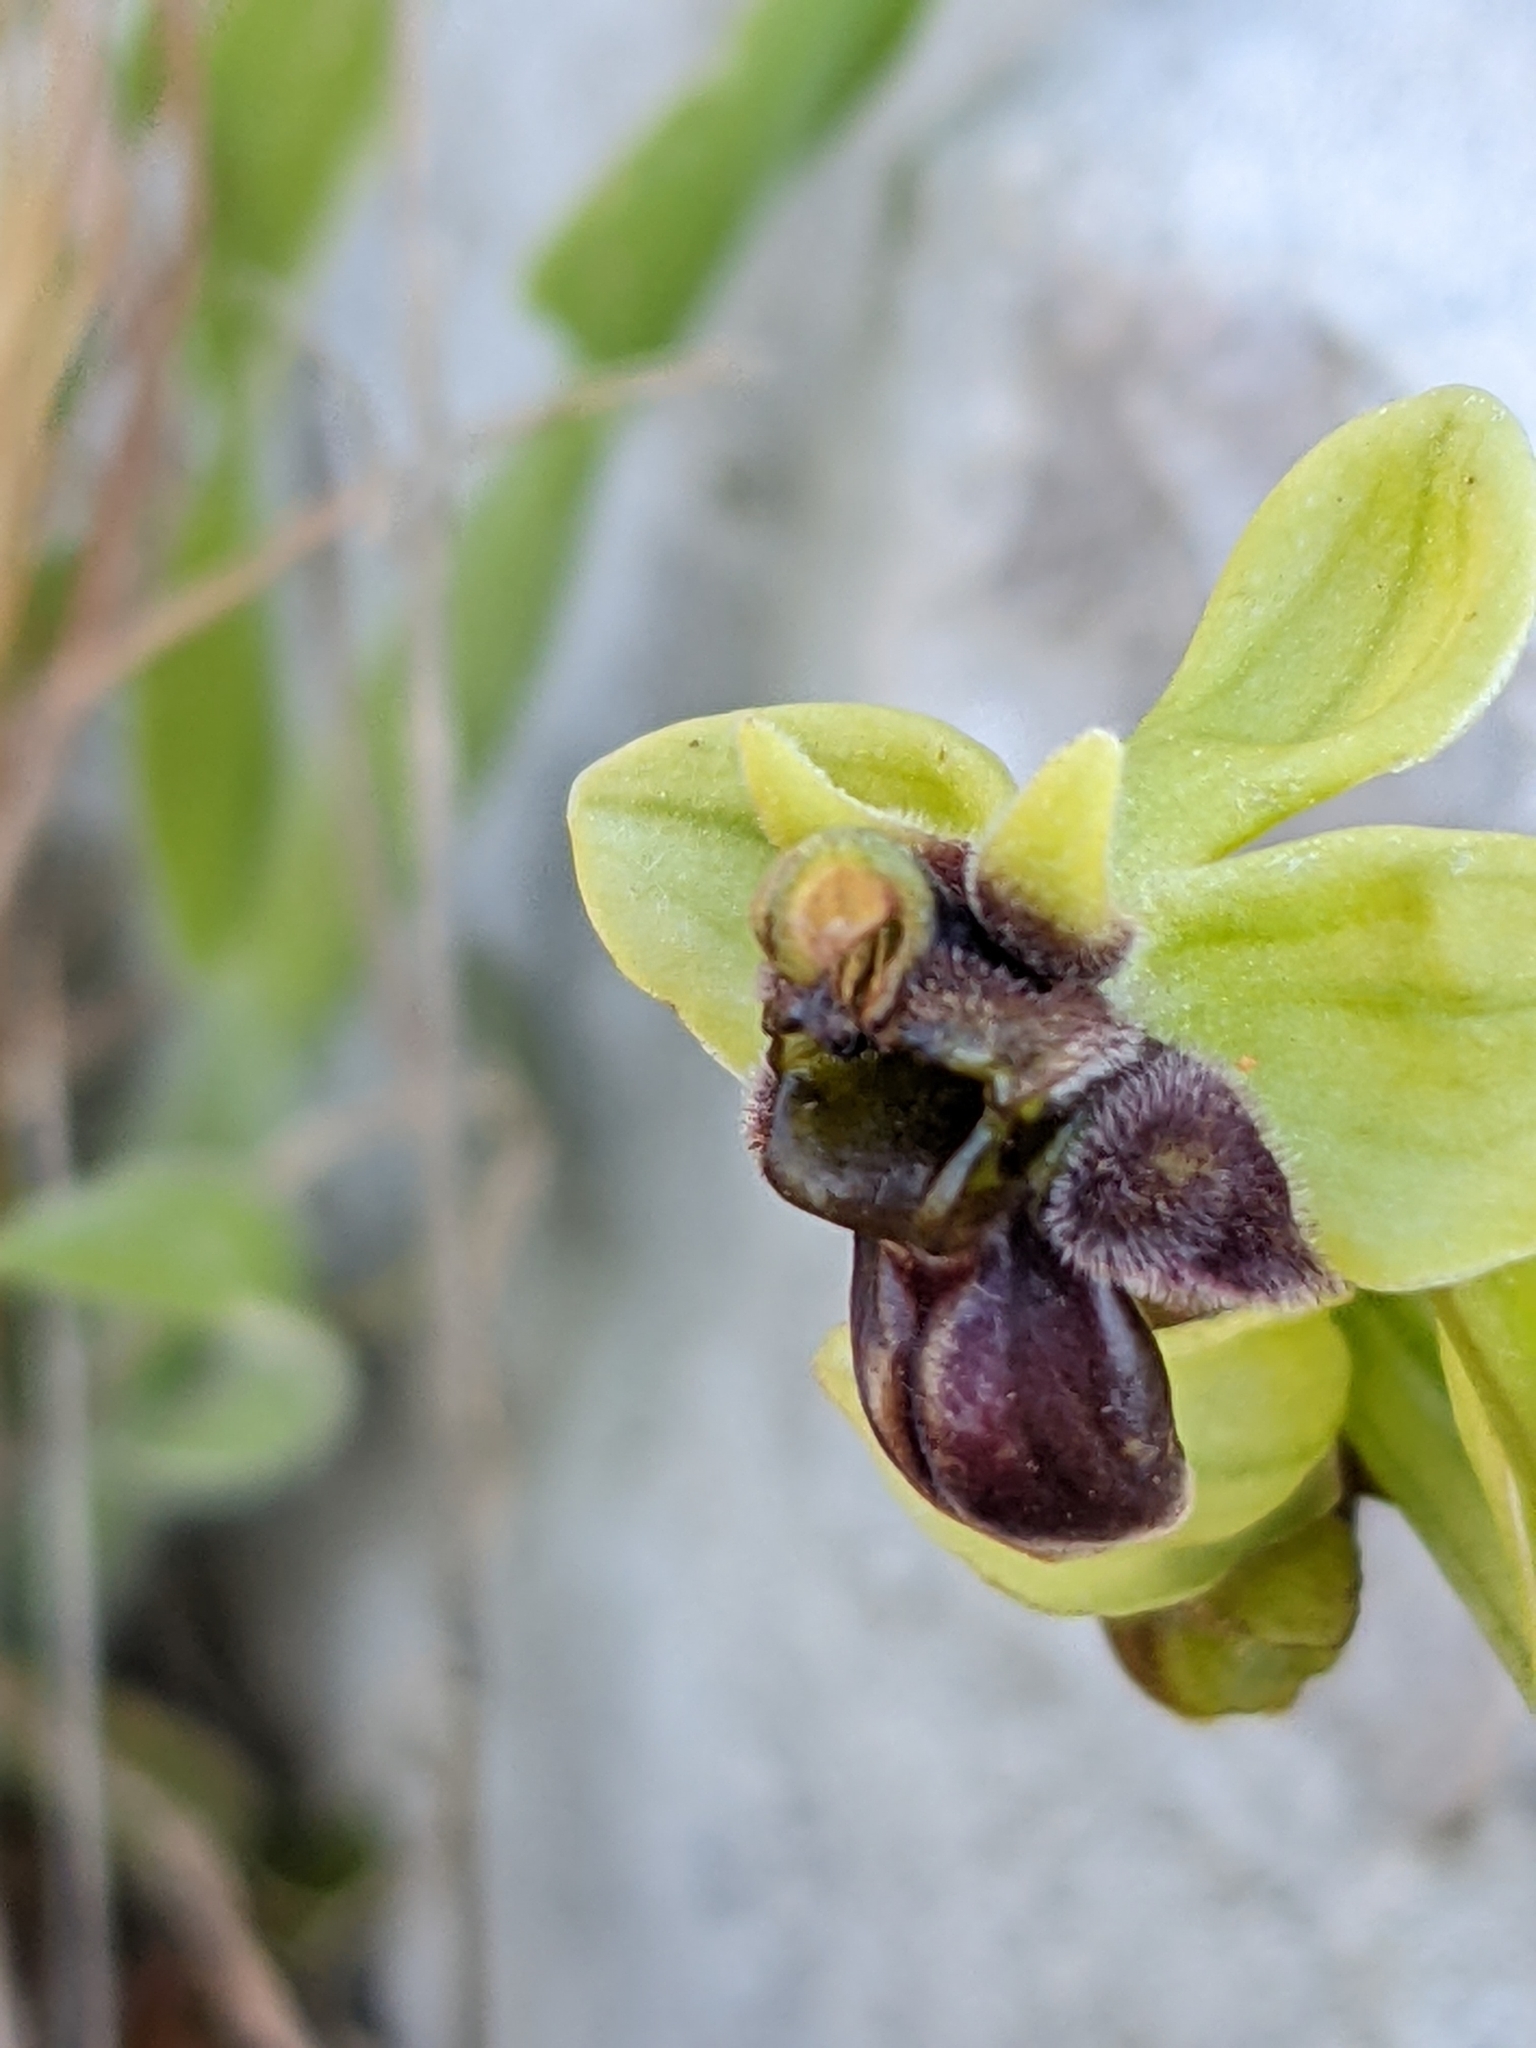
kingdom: Plantae
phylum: Tracheophyta
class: Liliopsida
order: Asparagales
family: Orchidaceae
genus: Ophrys
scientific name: Ophrys bombyliflora
